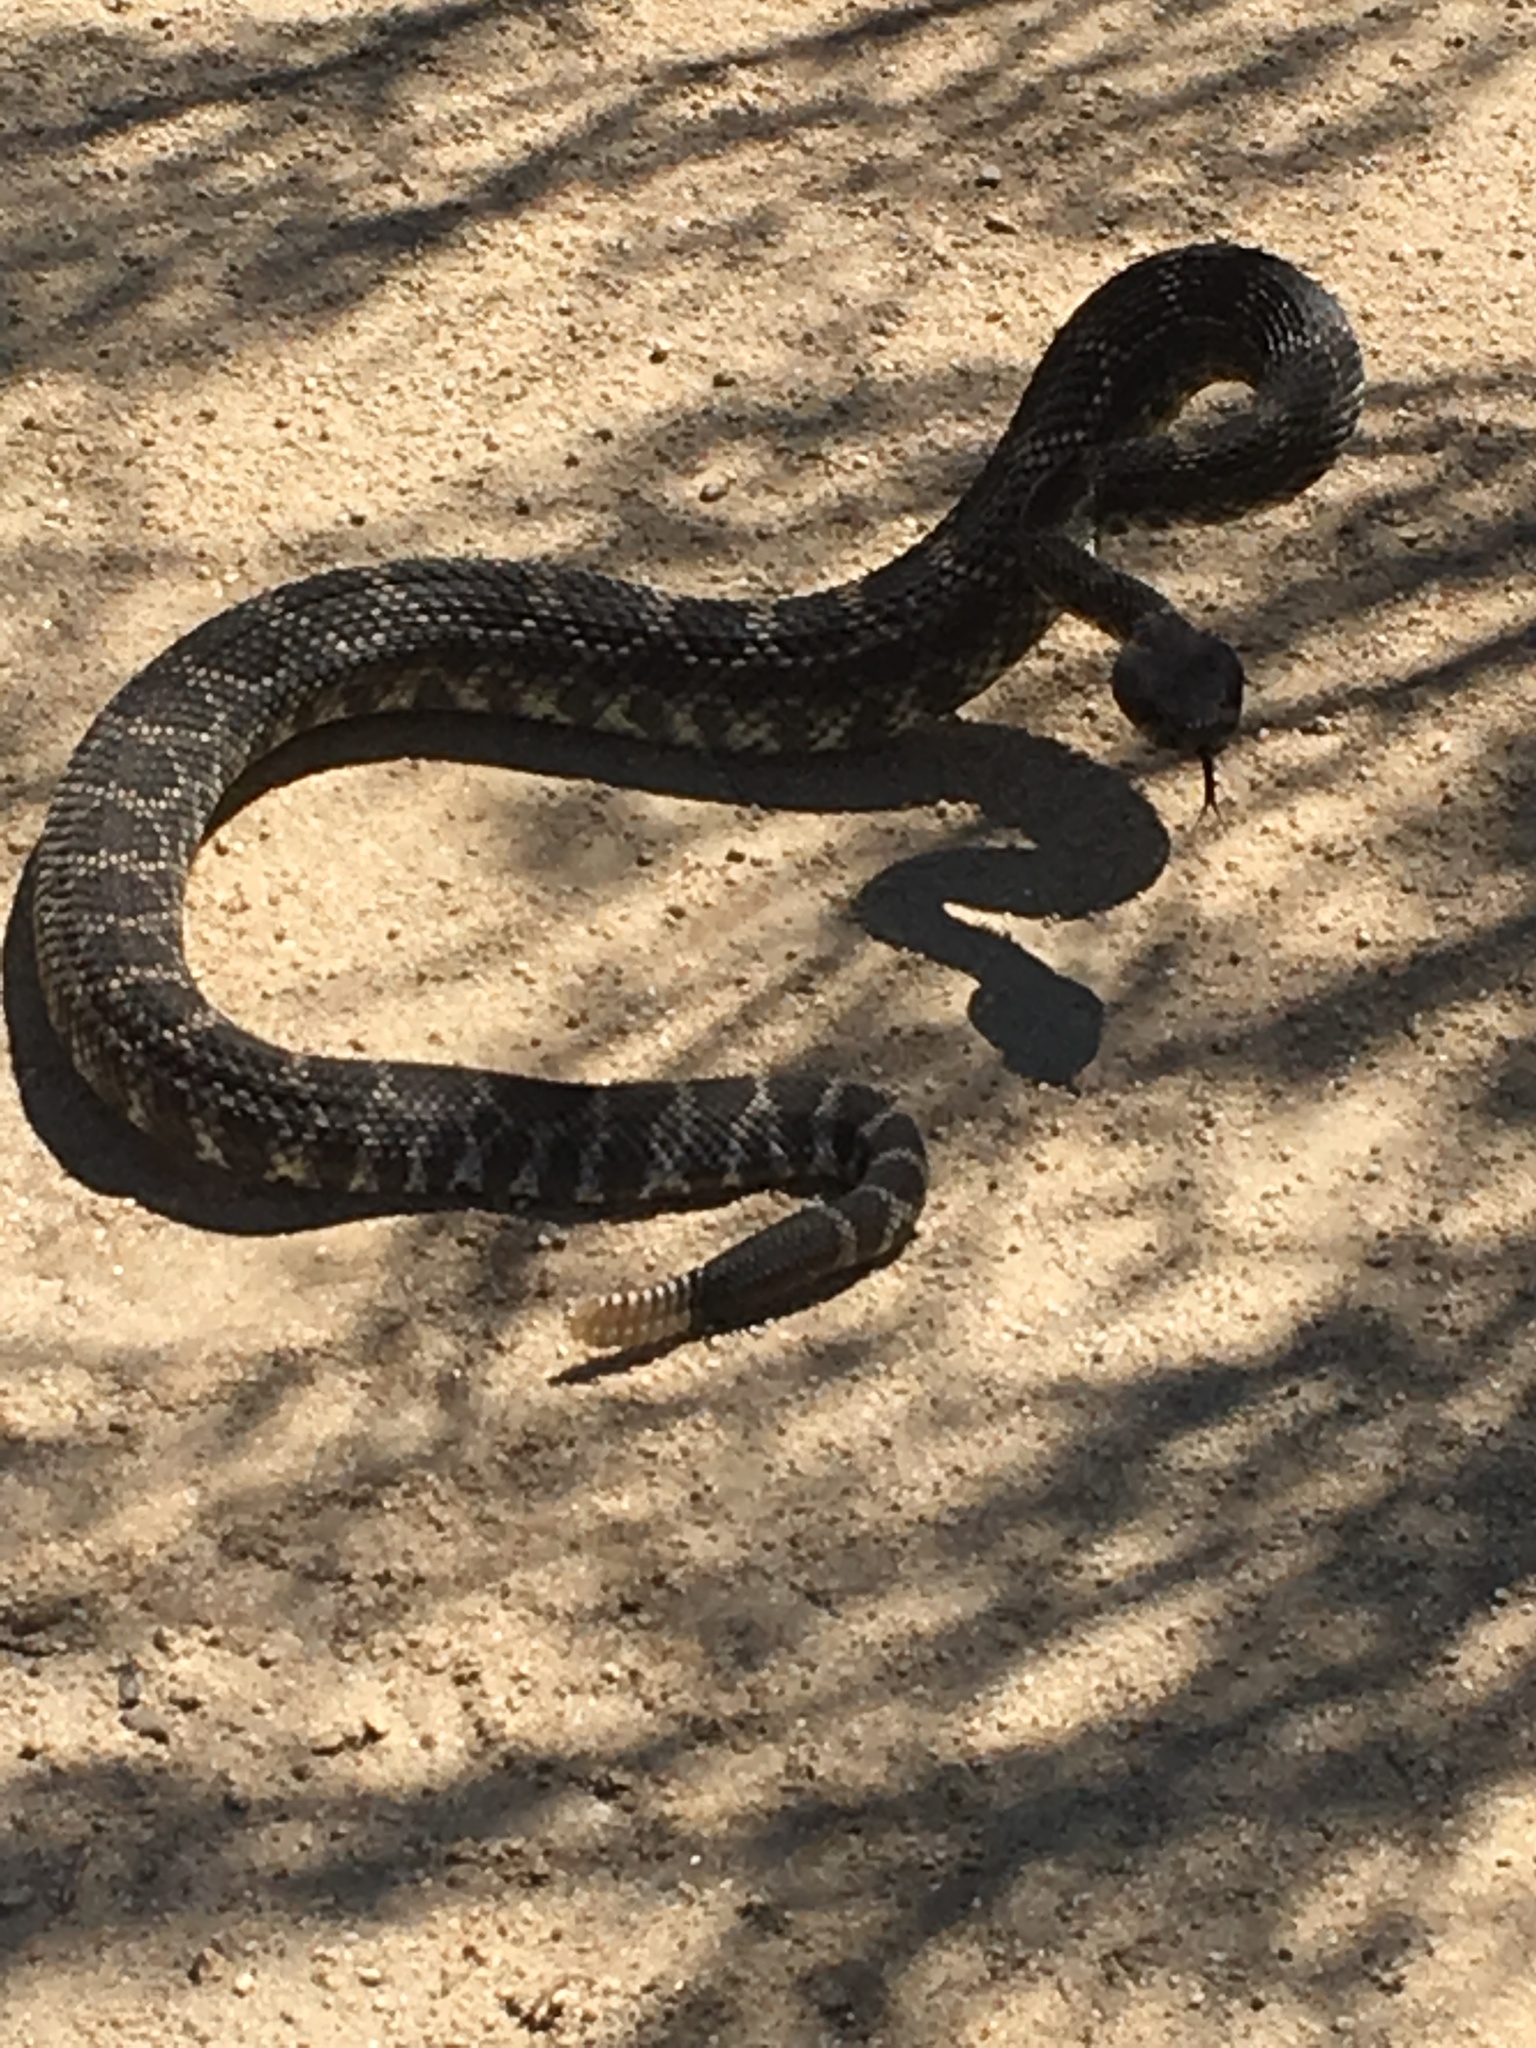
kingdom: Animalia
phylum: Chordata
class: Squamata
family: Viperidae
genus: Crotalus
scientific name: Crotalus oreganus
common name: Abyssus
